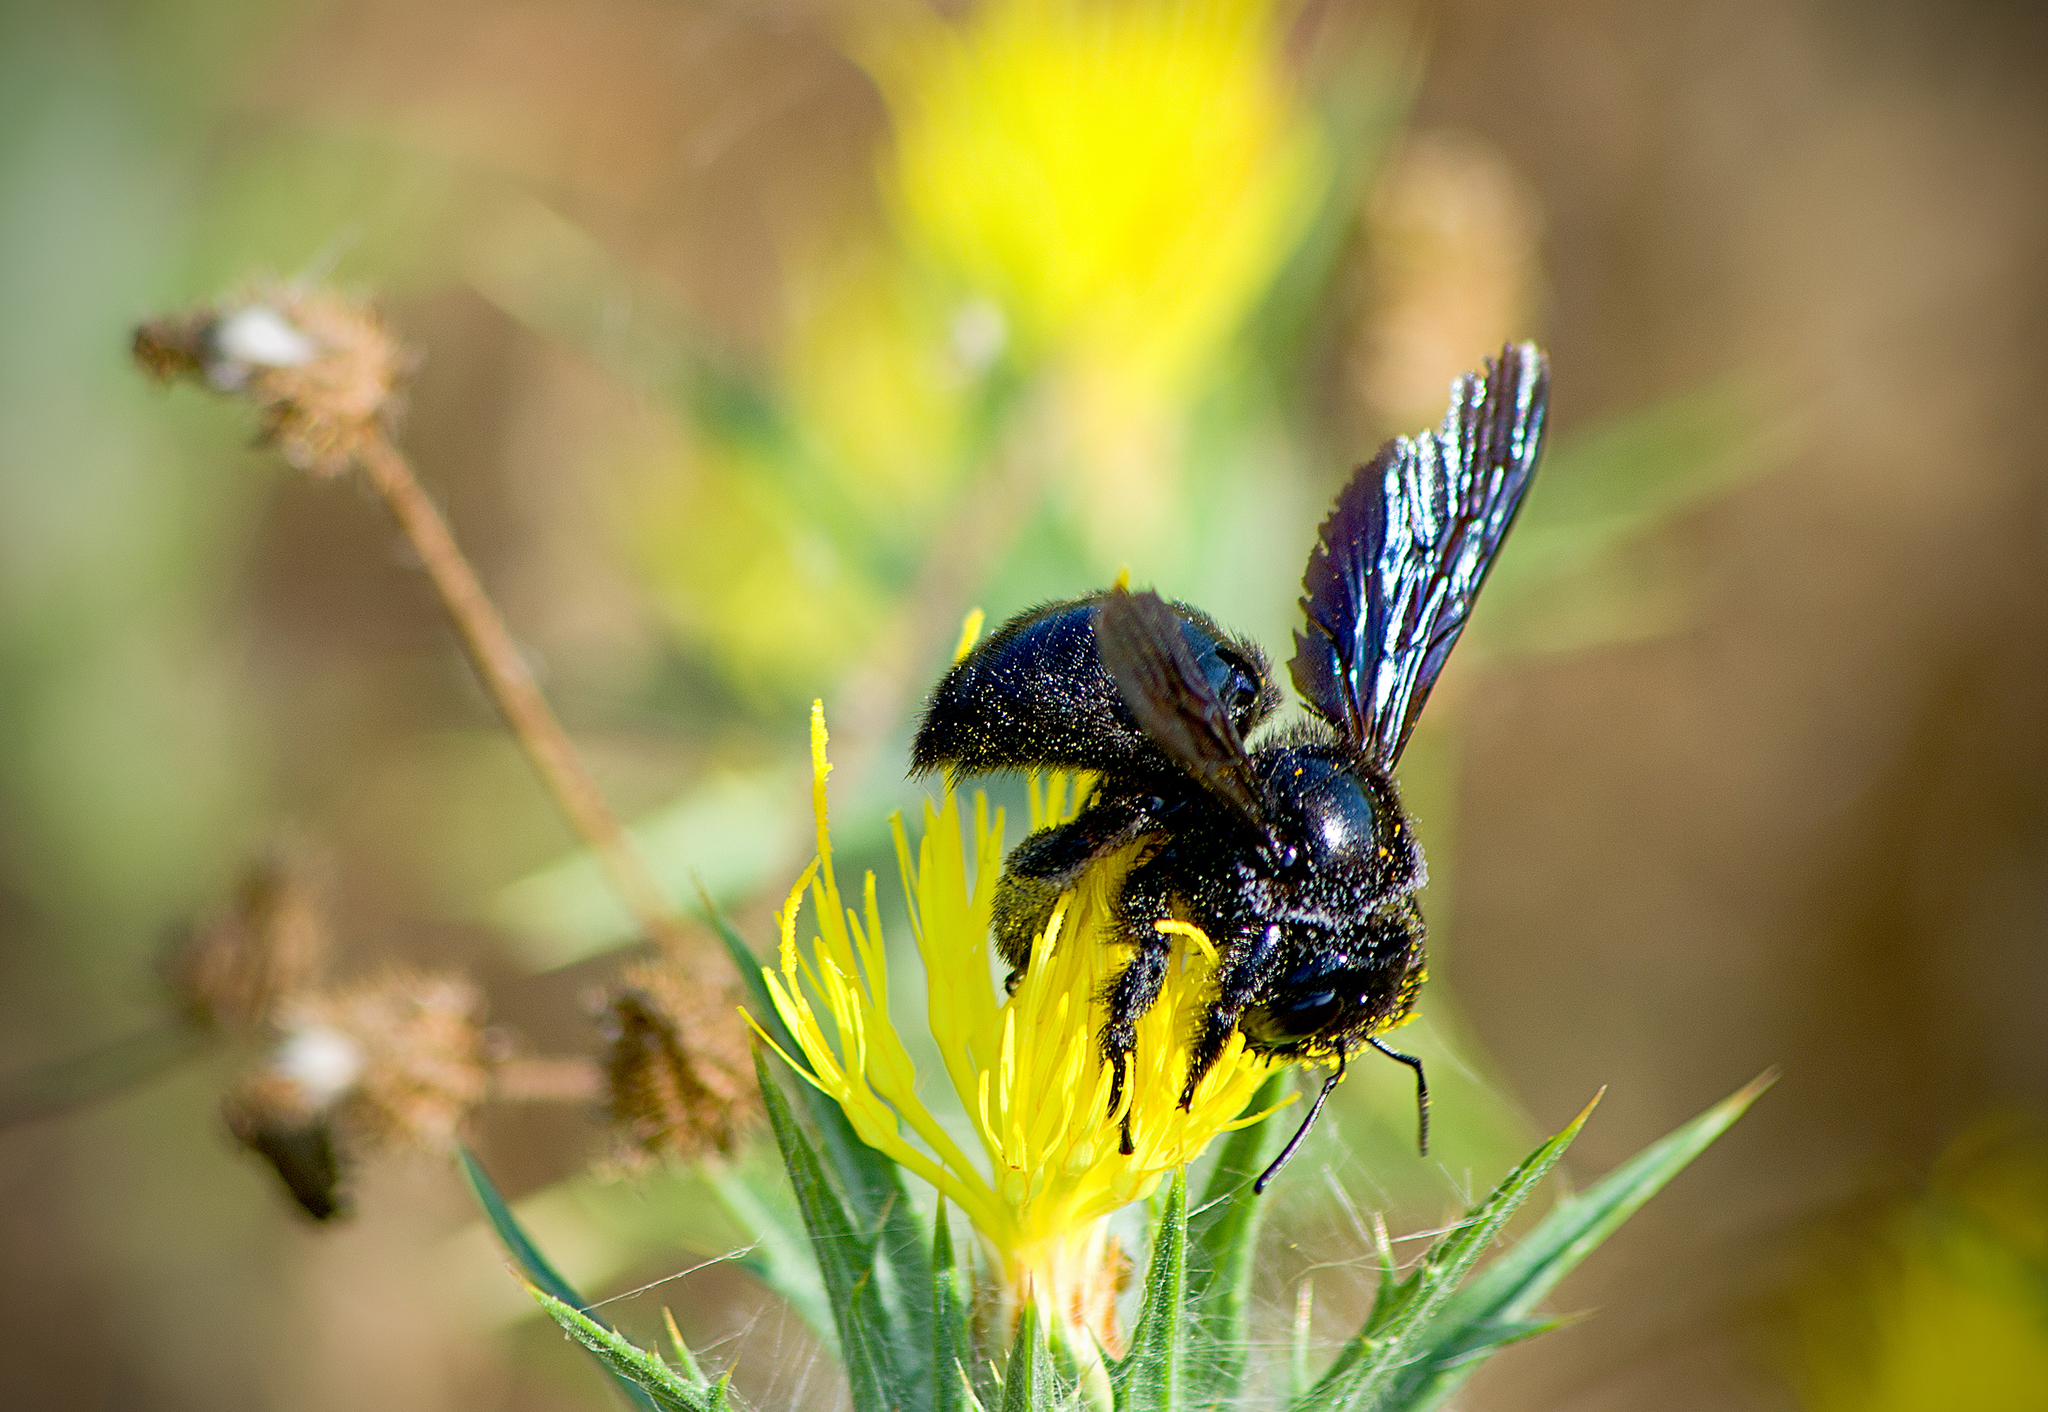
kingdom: Animalia
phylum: Arthropoda
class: Insecta
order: Hymenoptera
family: Apidae
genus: Xylocopa
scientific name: Xylocopa violacea
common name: Violet carpenter bee
